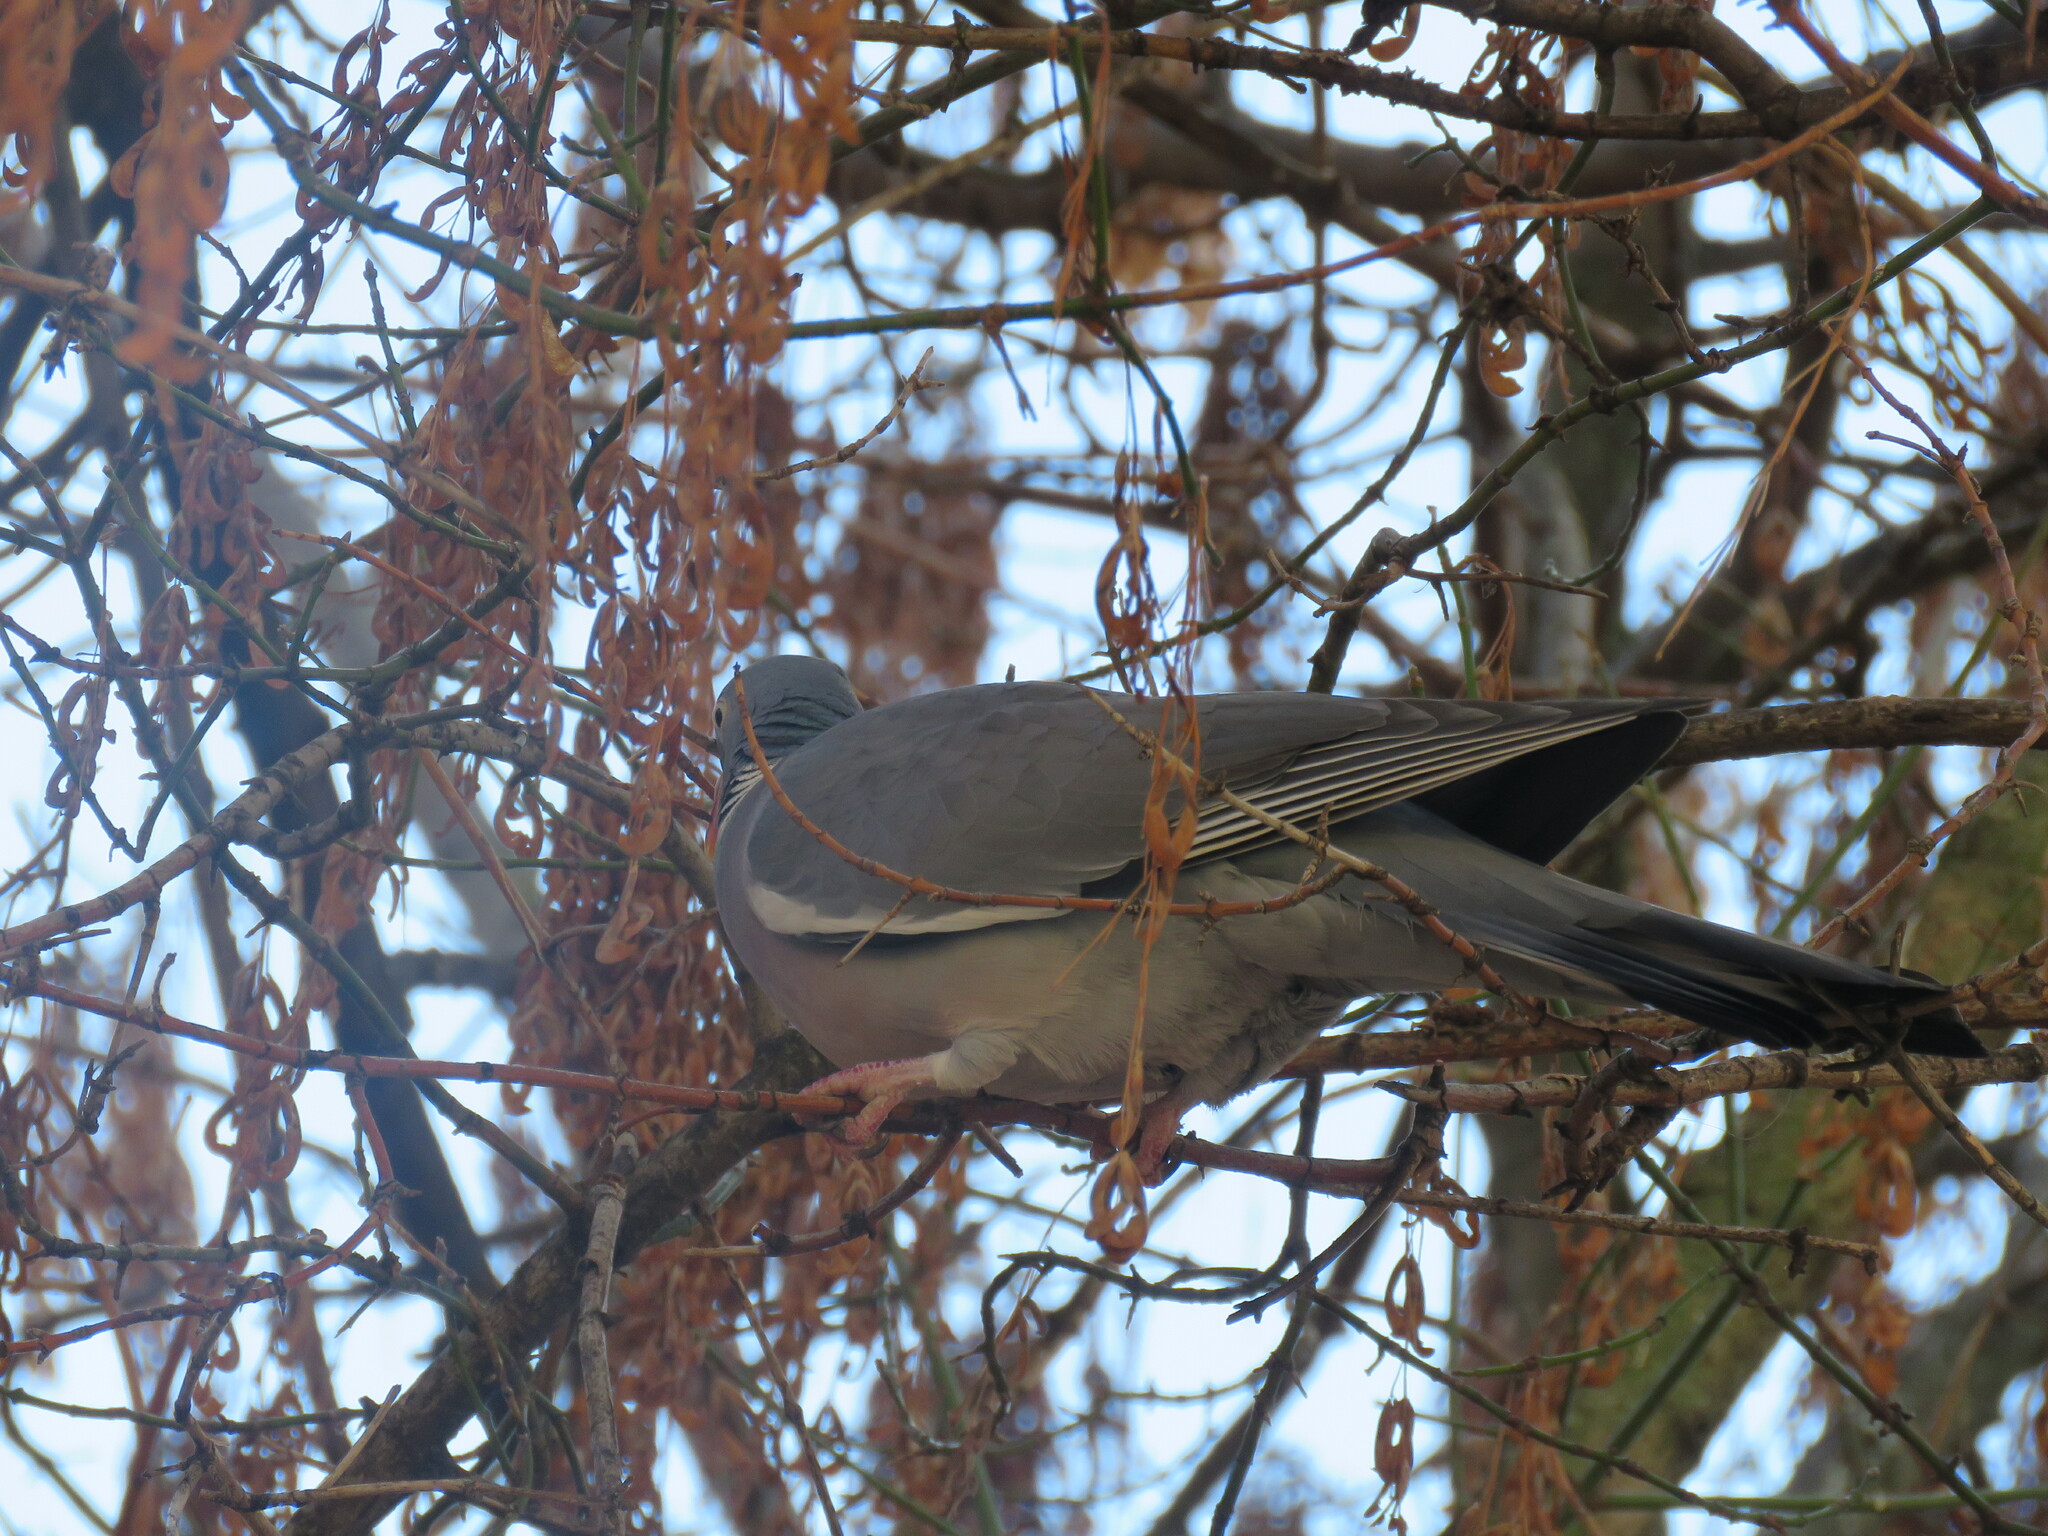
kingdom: Animalia
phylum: Chordata
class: Aves
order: Columbiformes
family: Columbidae
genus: Columba
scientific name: Columba palumbus
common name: Common wood pigeon
